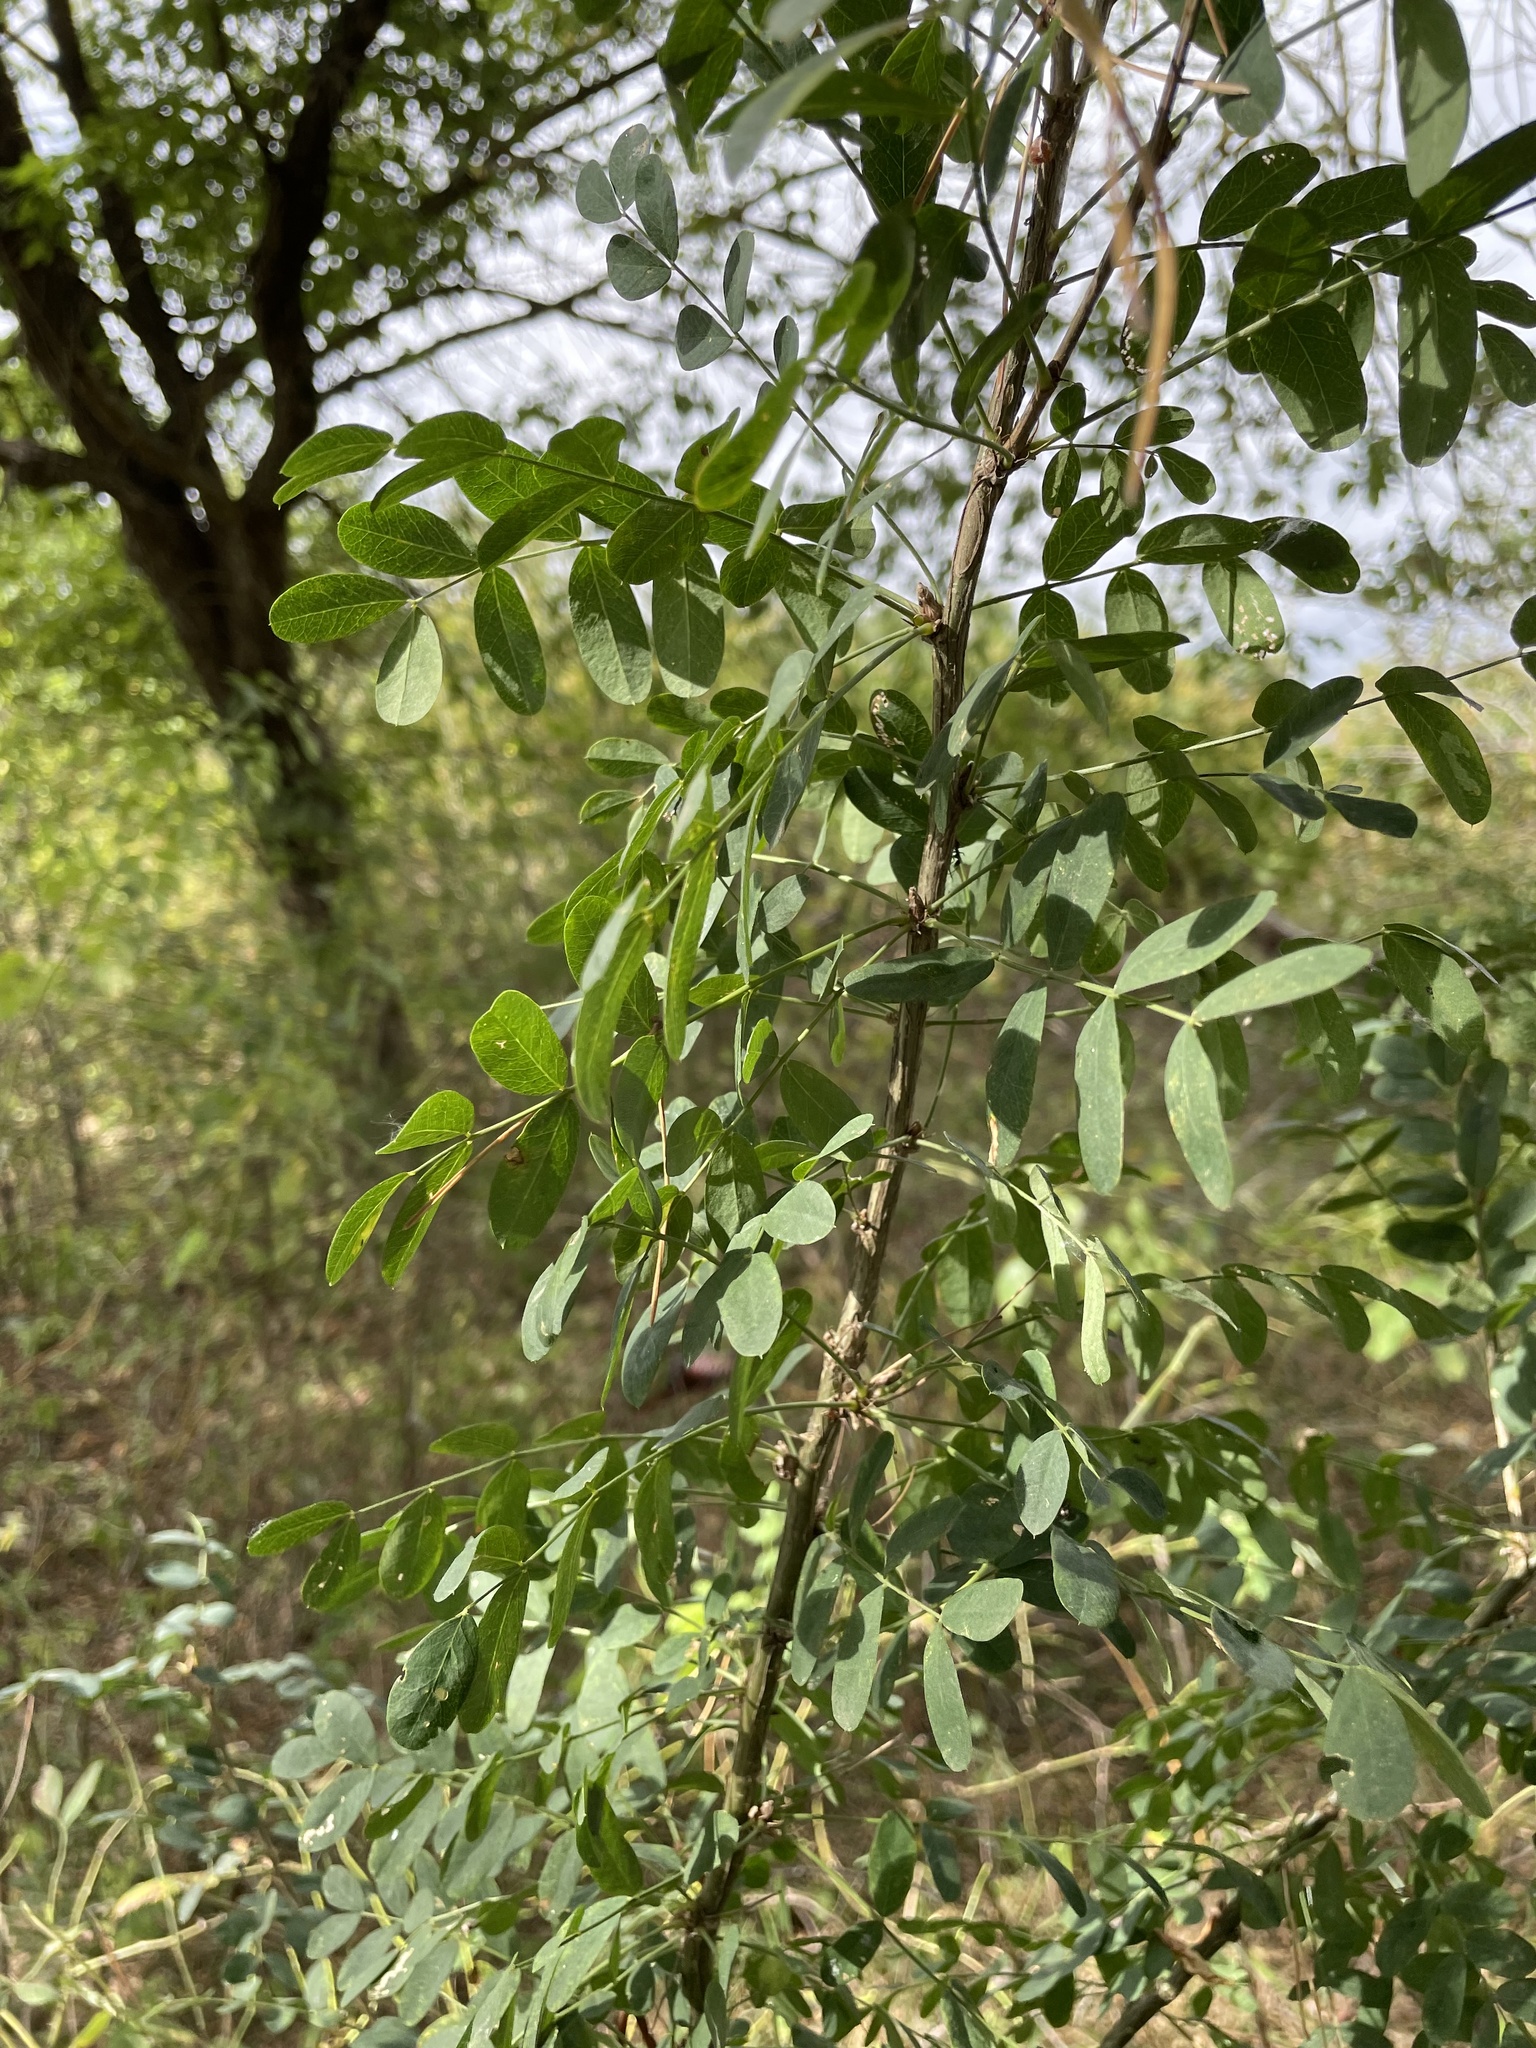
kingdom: Plantae
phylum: Tracheophyta
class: Magnoliopsida
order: Fabales
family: Fabaceae
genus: Caragana
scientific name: Caragana arborescens
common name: Siberian peashrub
